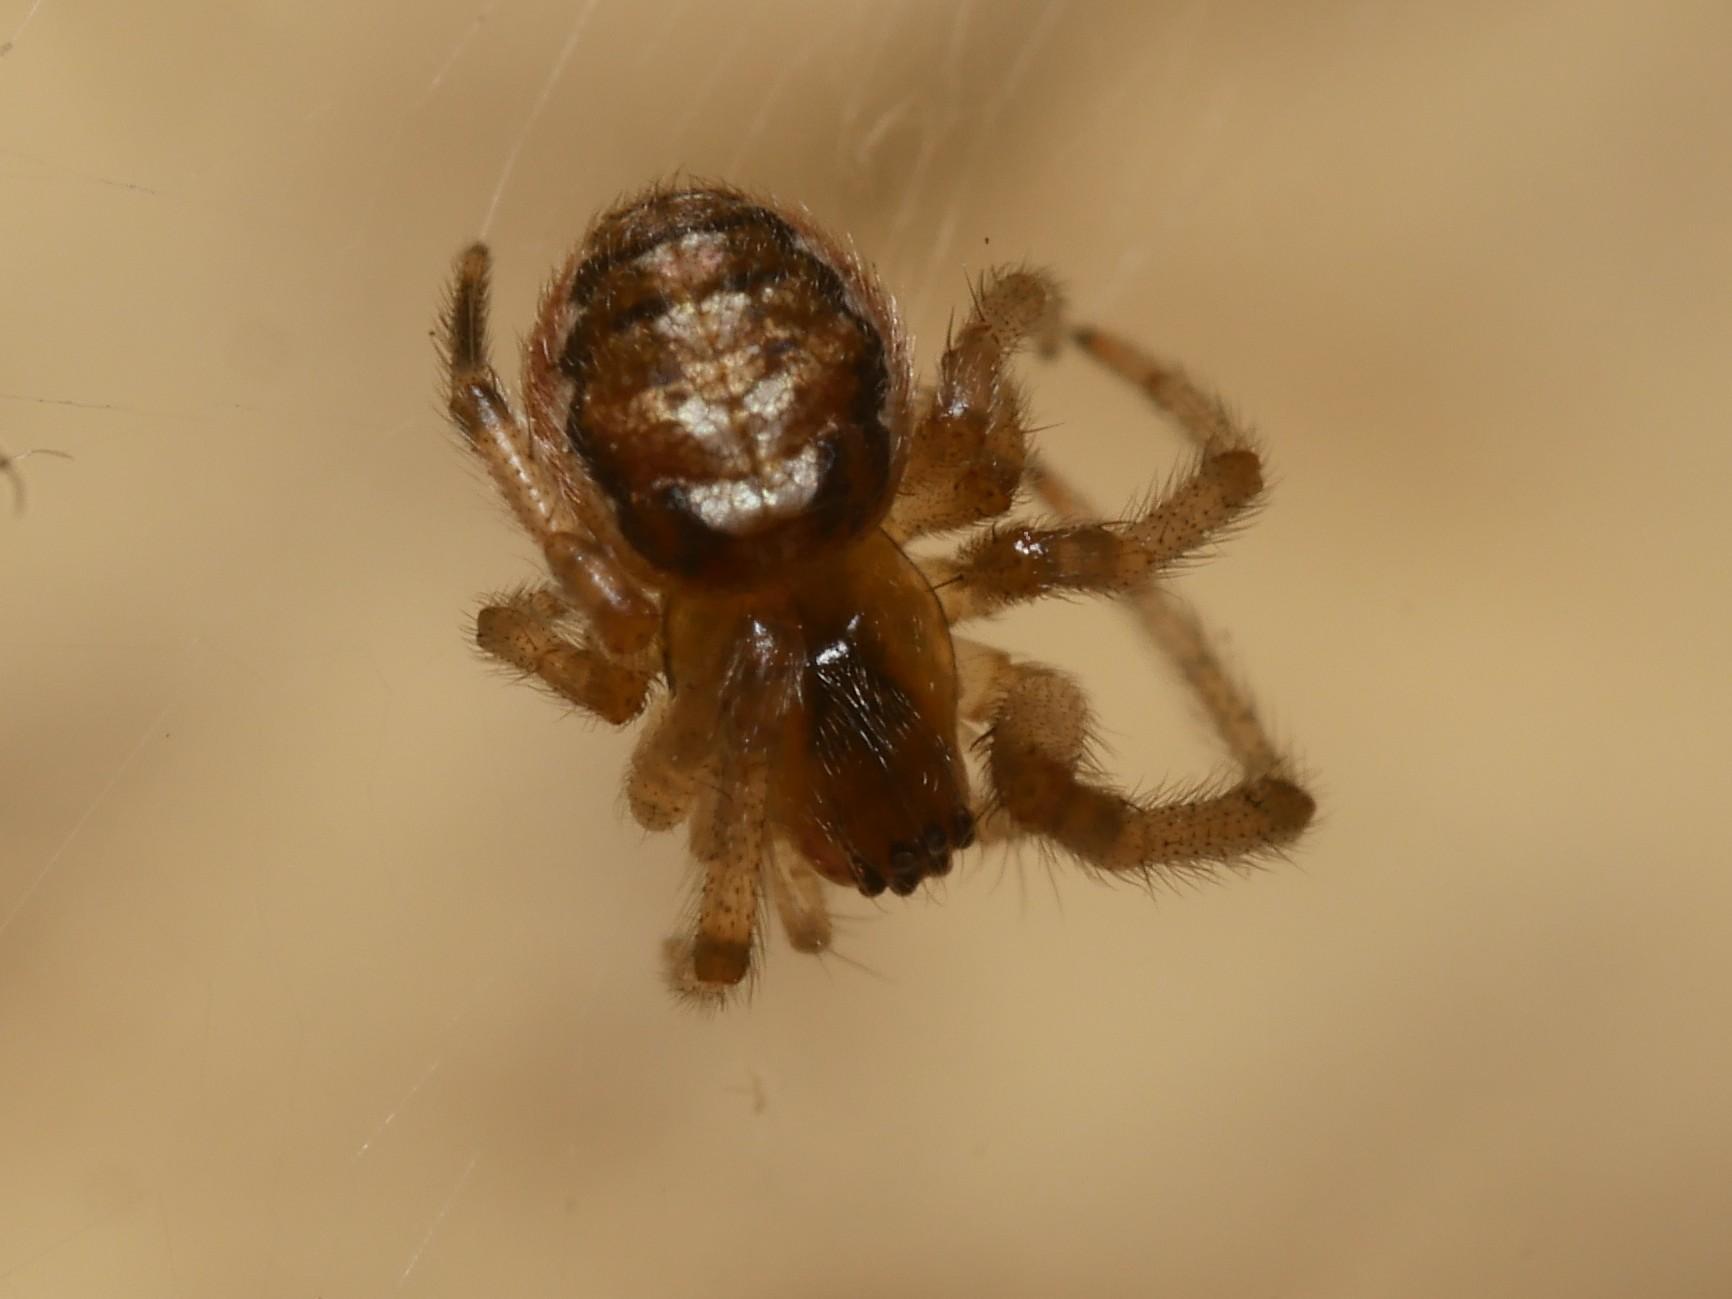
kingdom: Animalia
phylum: Arthropoda
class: Arachnida
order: Araneae
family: Araneidae
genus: Zygiella
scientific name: Zygiella x-notata
